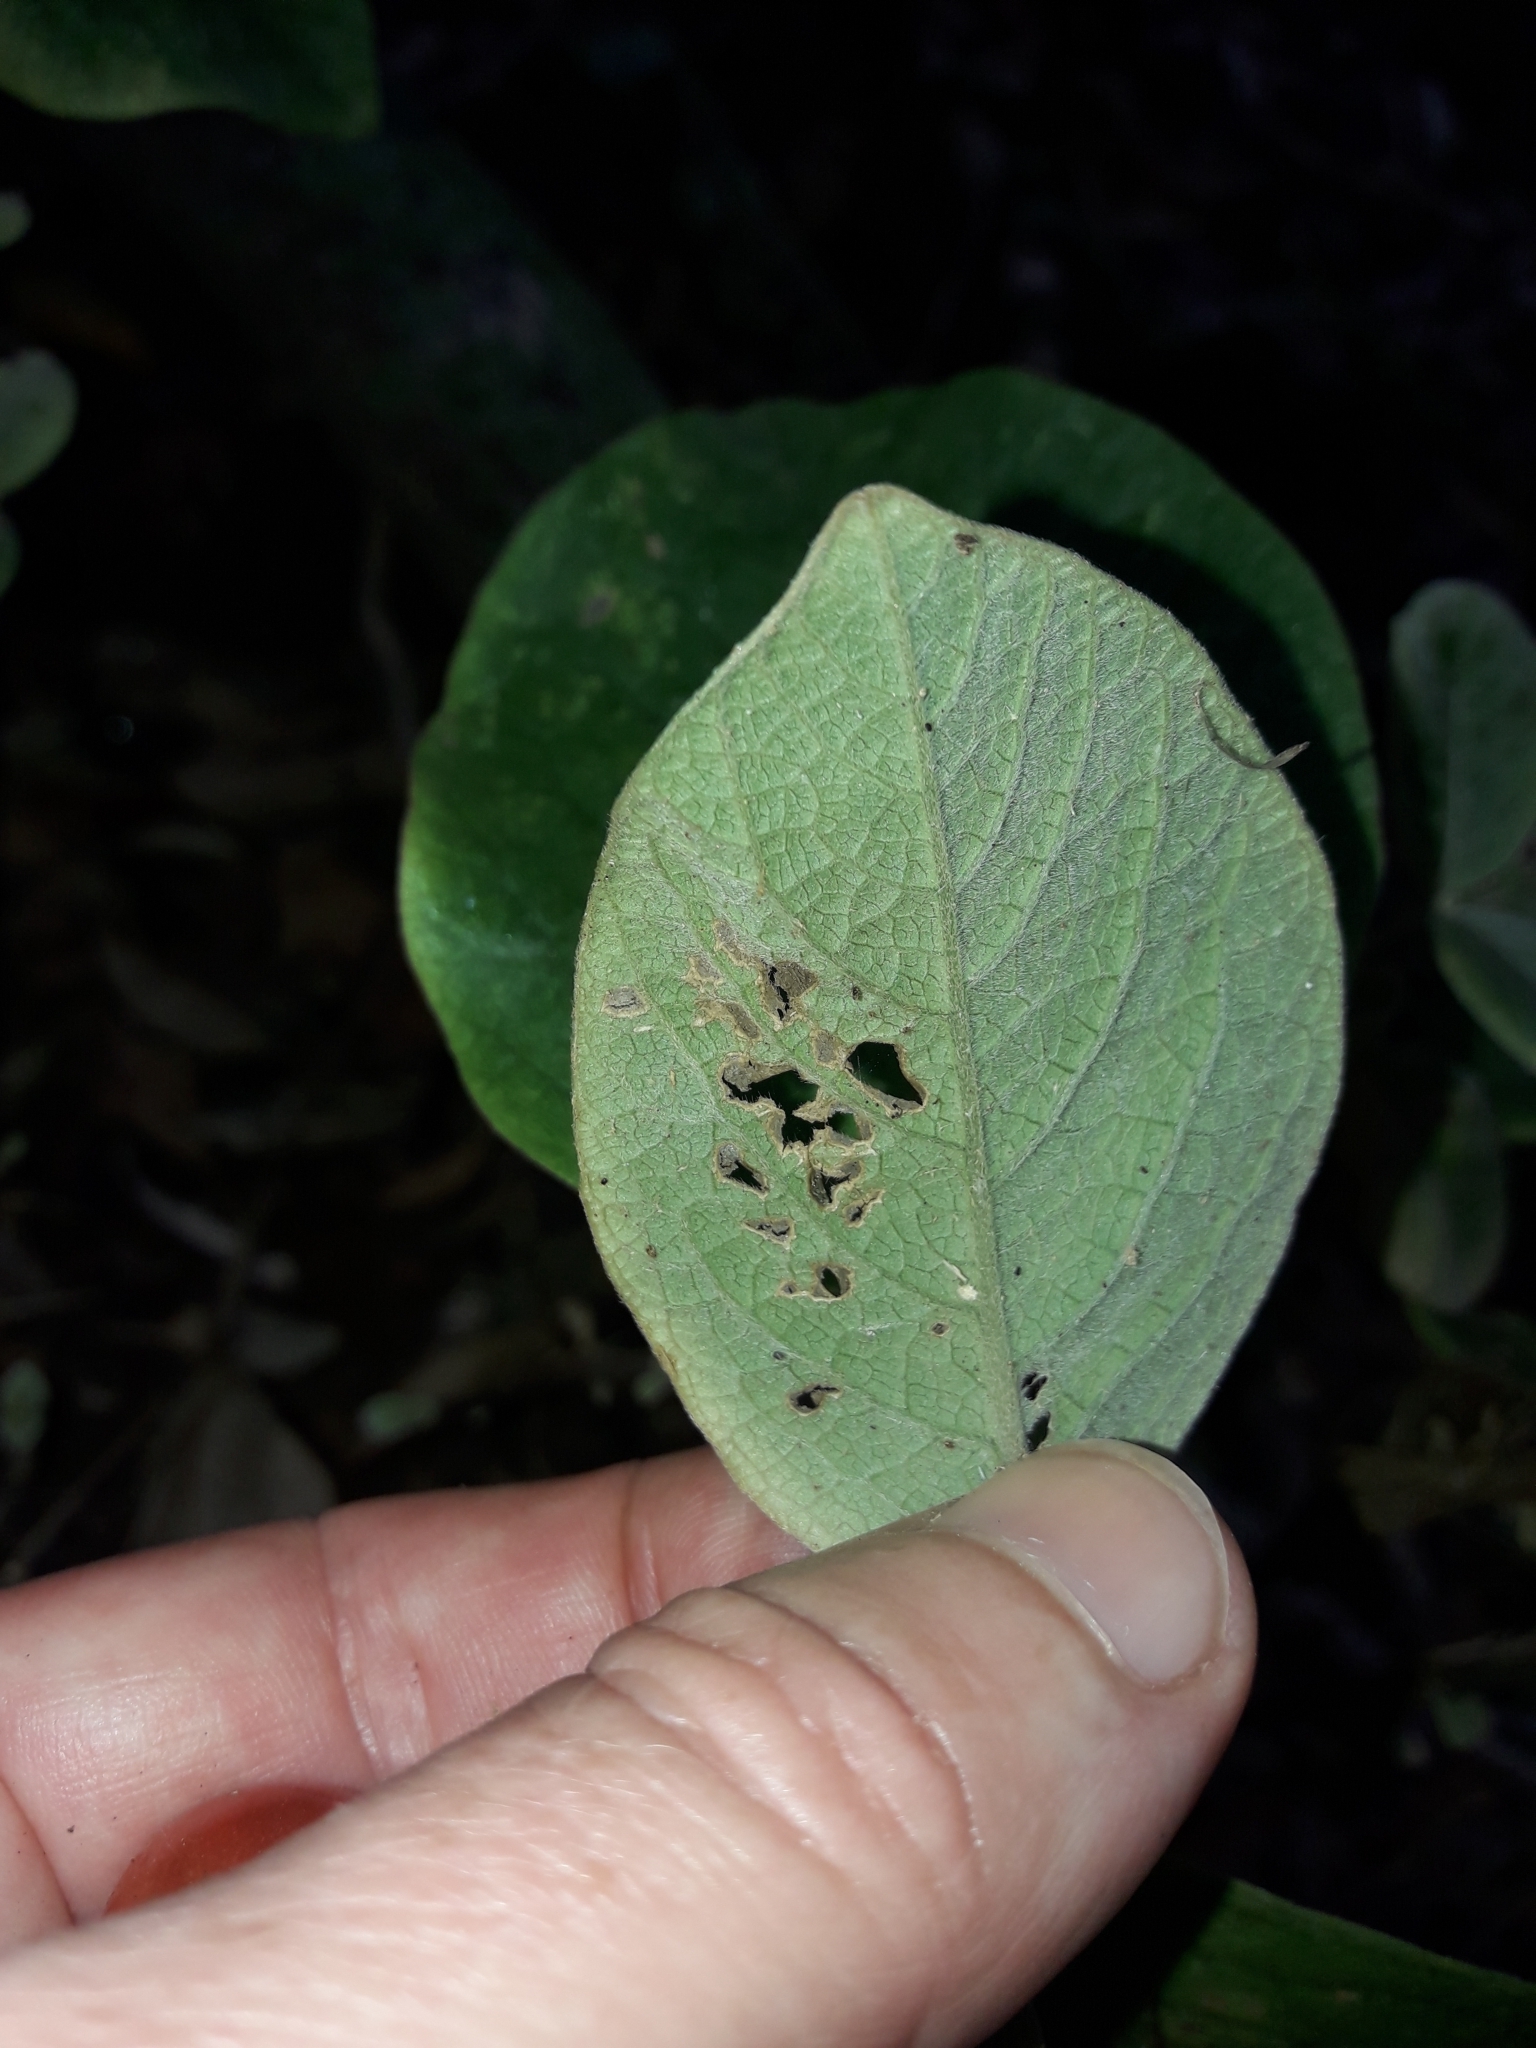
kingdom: Plantae
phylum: Tracheophyta
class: Magnoliopsida
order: Caryophyllales
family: Amaranthaceae
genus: Achyranthes
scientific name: Achyranthes aspera
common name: Devil's horsewhip
